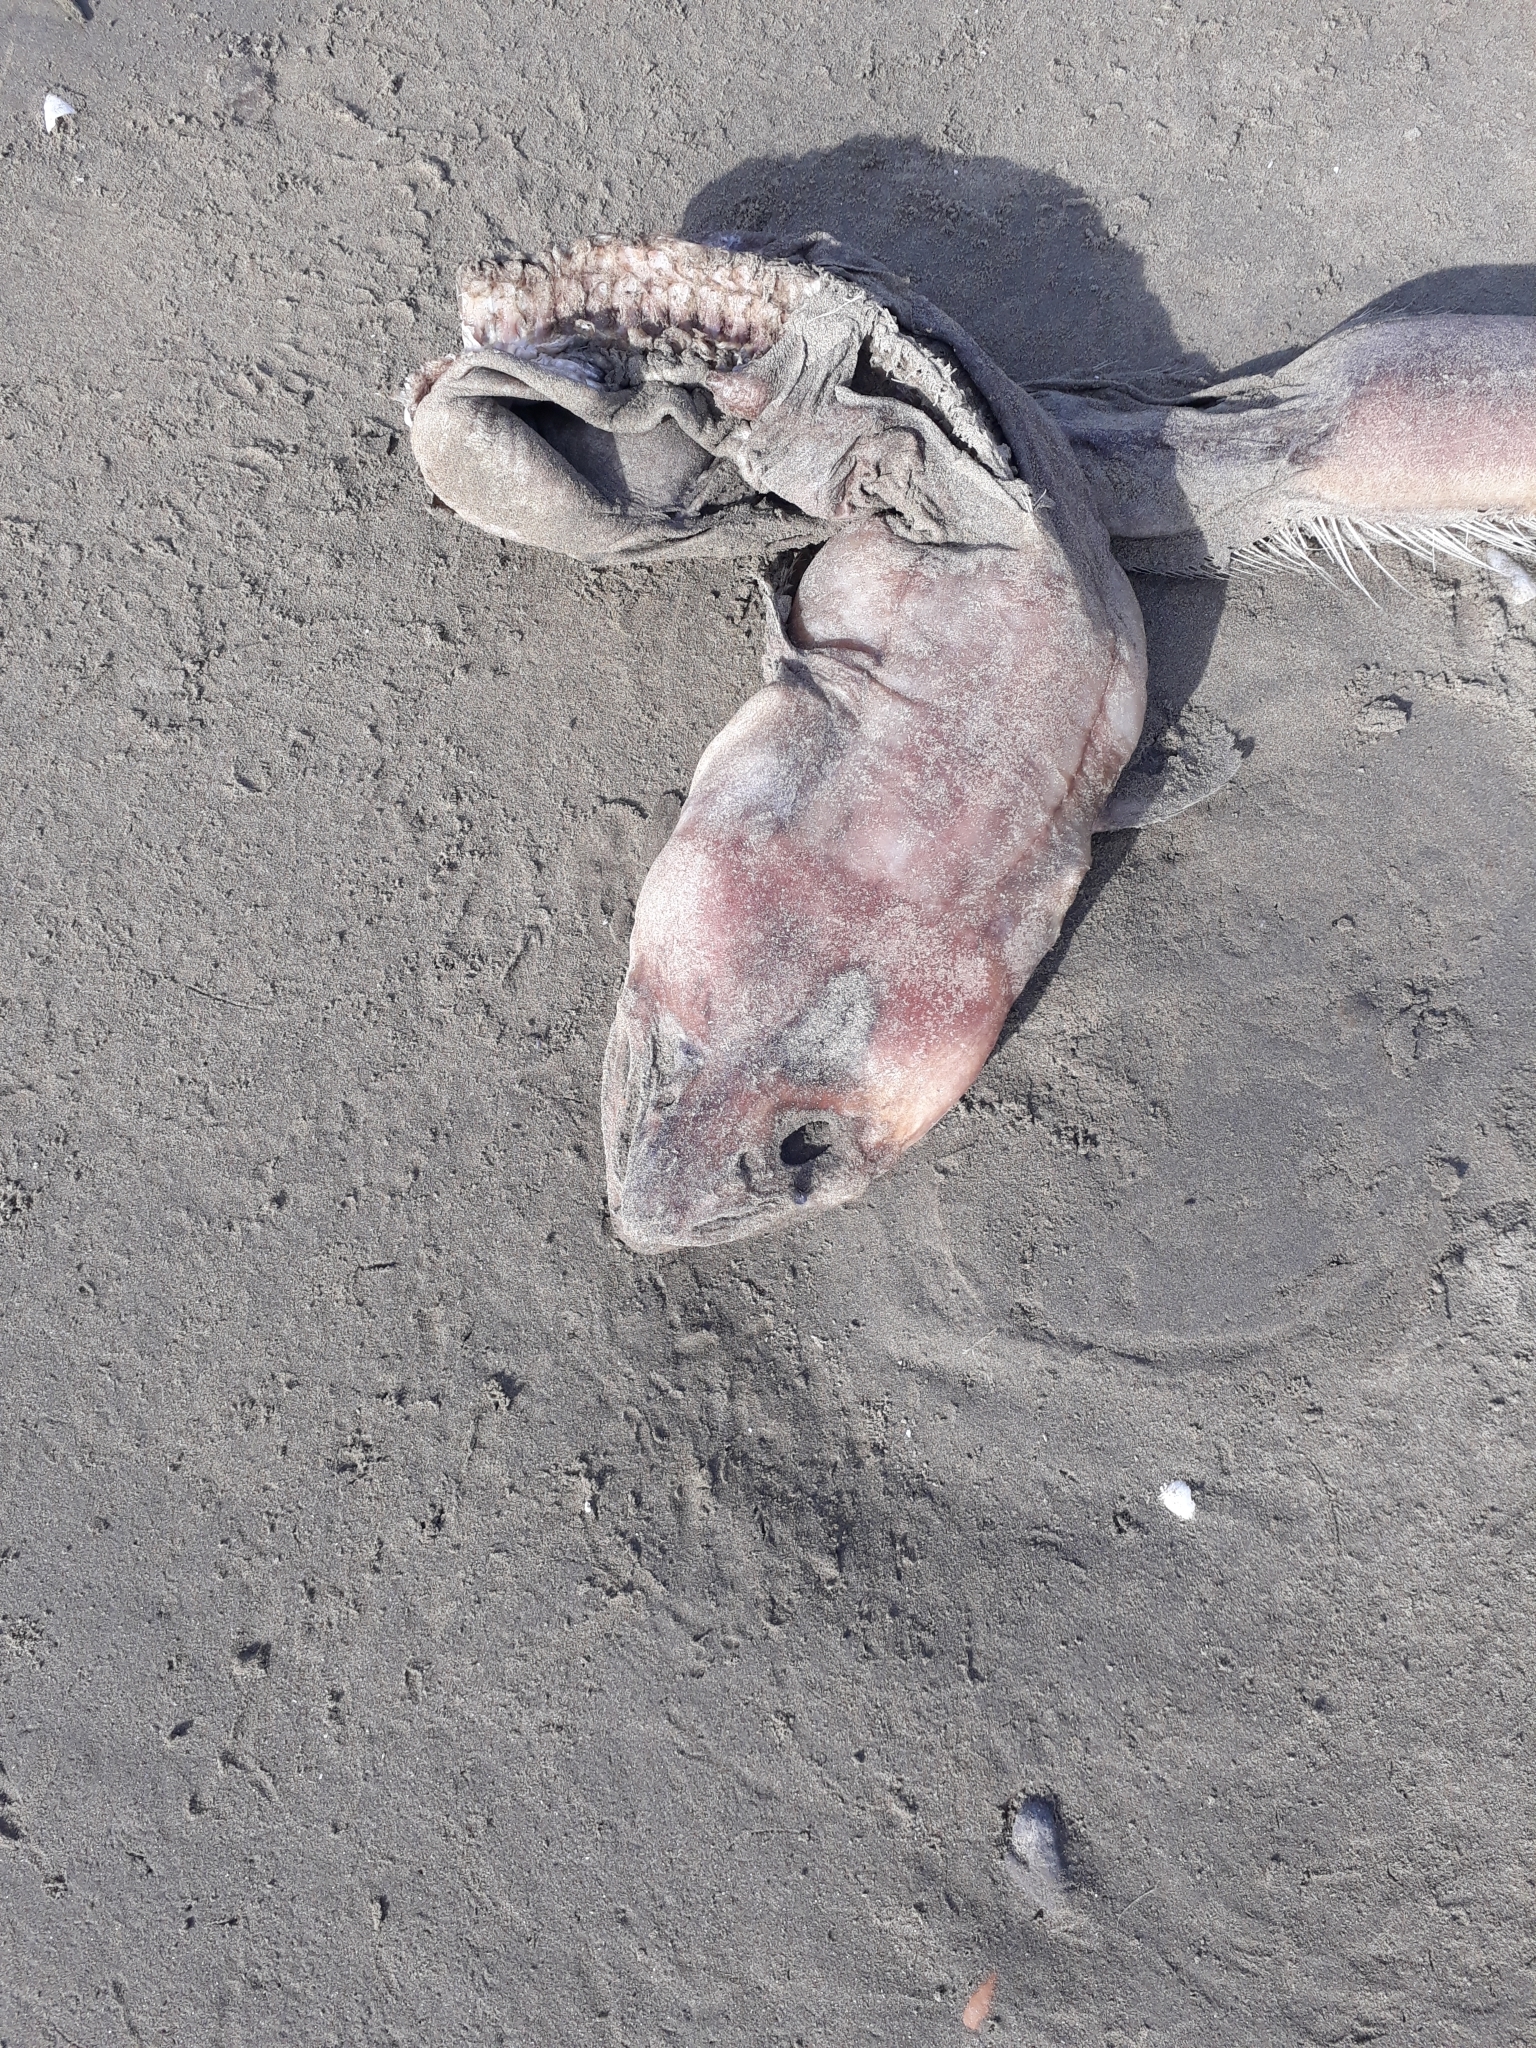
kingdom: Animalia
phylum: Chordata
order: Anguilliformes
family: Congridae
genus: Conger
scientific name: Conger verreauxi
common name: Conger eel
